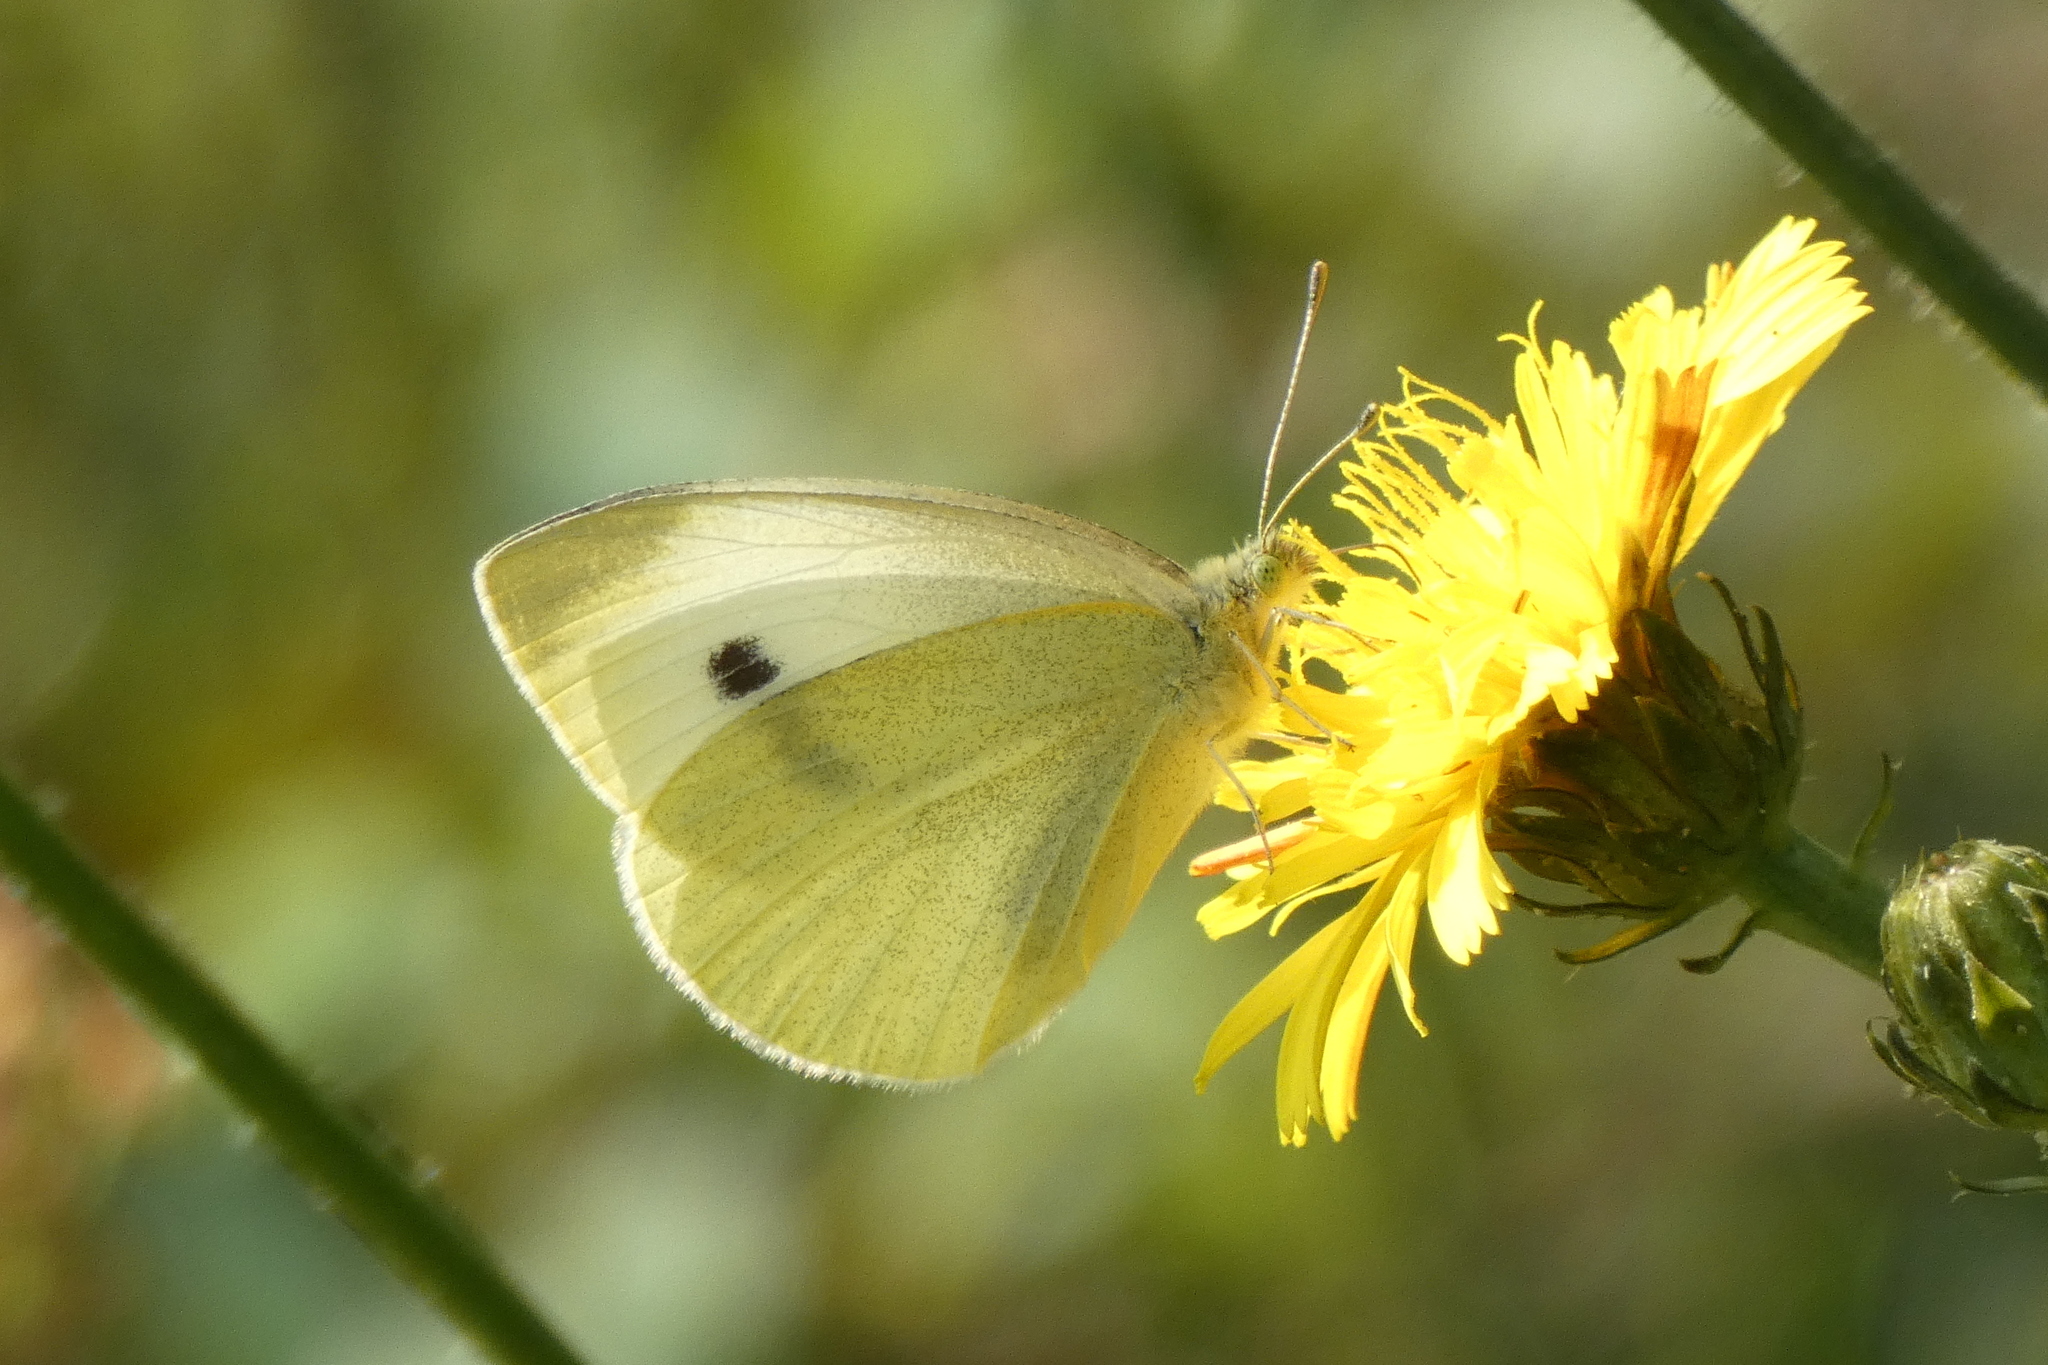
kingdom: Animalia
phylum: Arthropoda
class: Insecta
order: Lepidoptera
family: Pieridae
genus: Pieris
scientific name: Pieris rapae
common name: Small white
